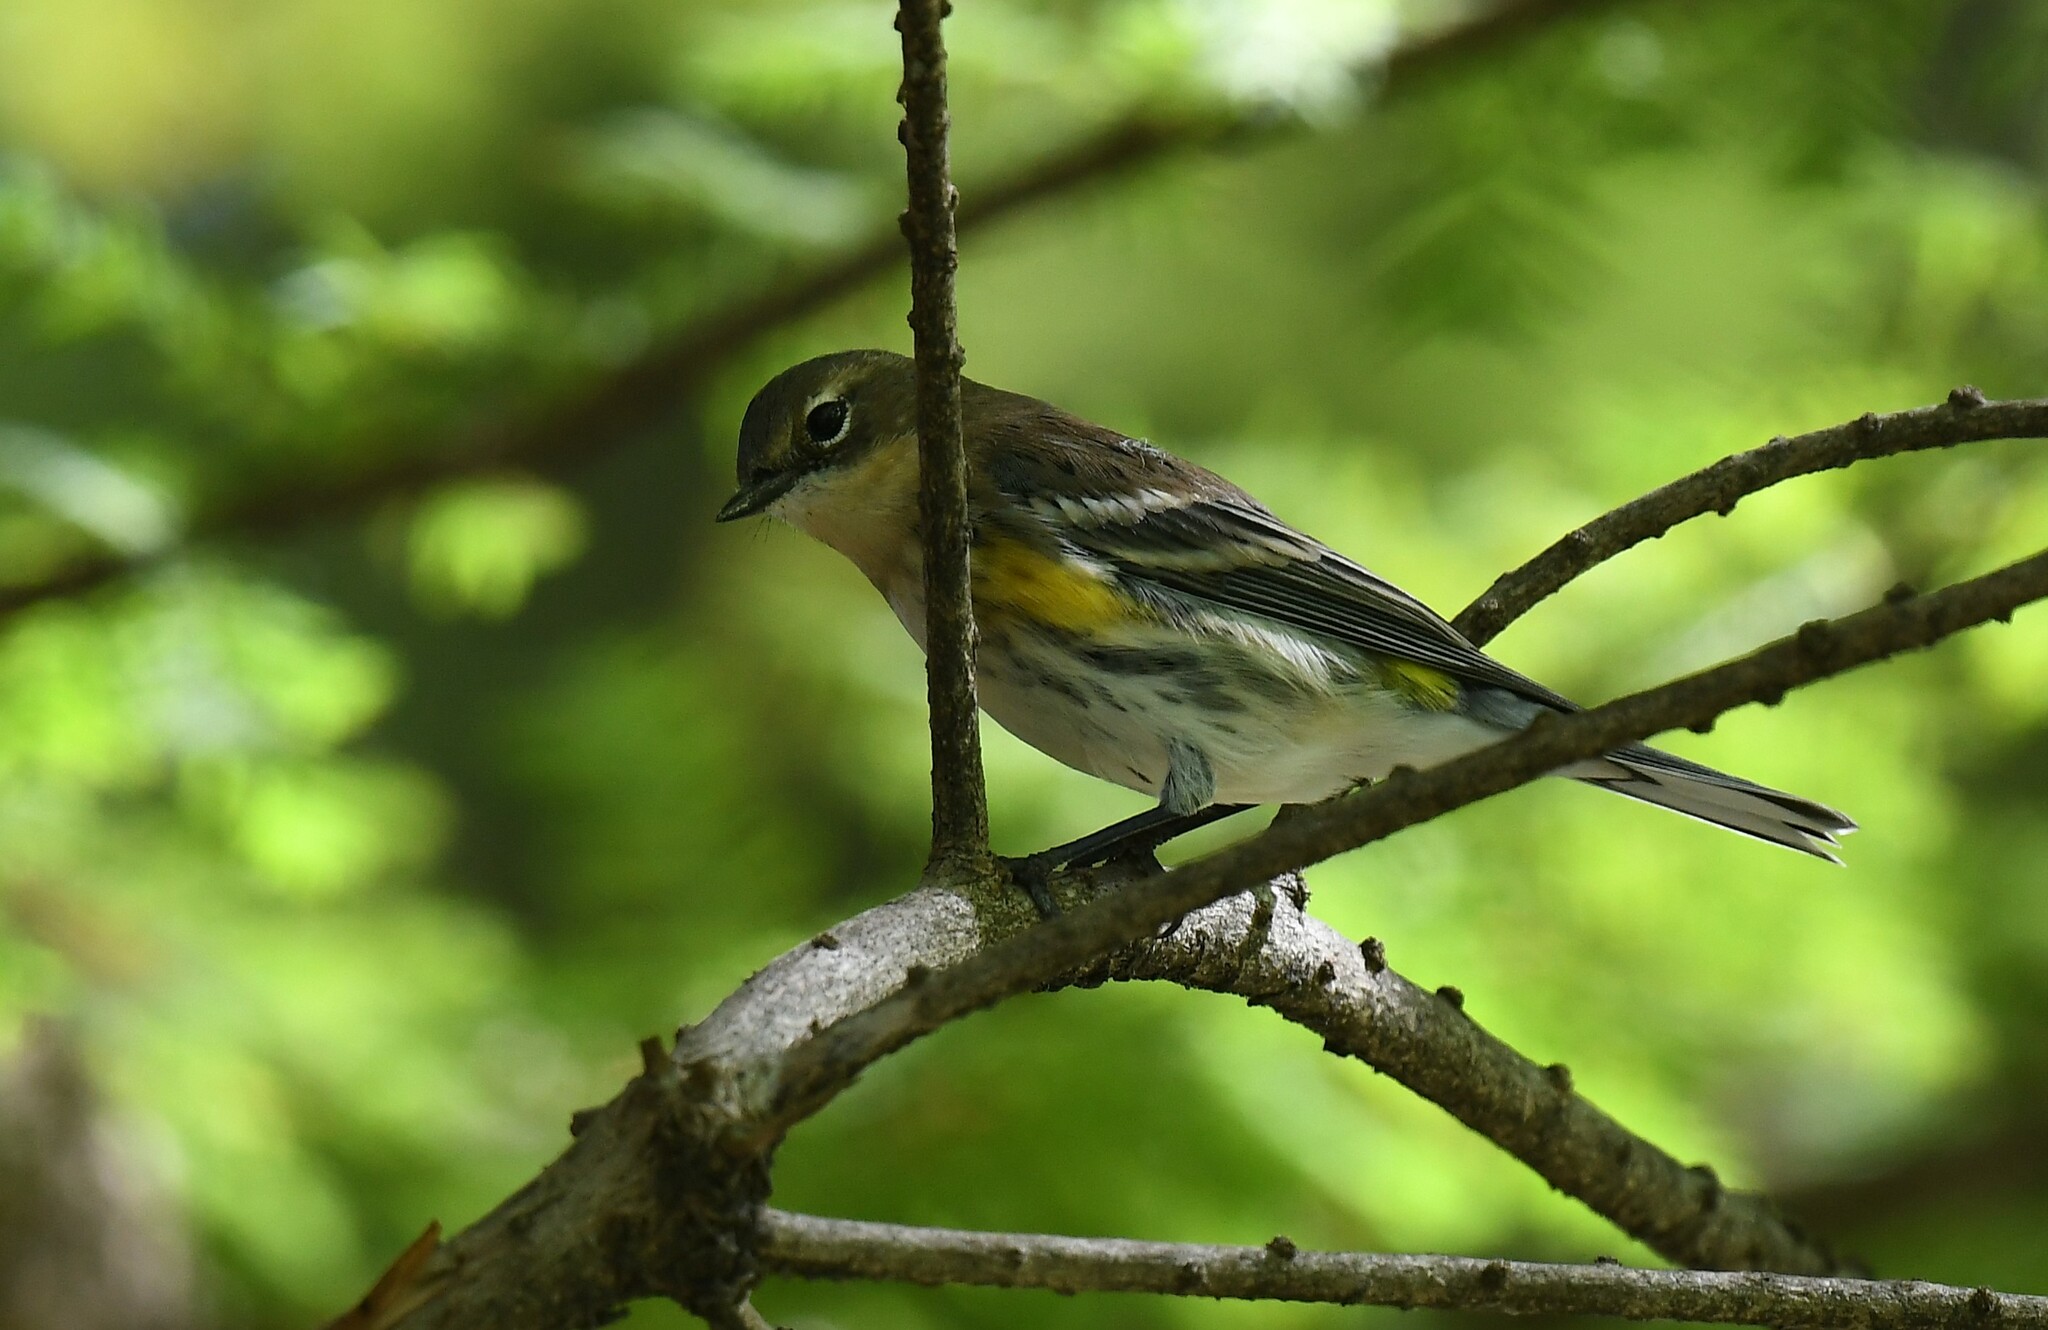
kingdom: Animalia
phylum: Chordata
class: Aves
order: Passeriformes
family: Parulidae
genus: Setophaga
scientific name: Setophaga coronata
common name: Myrtle warbler
